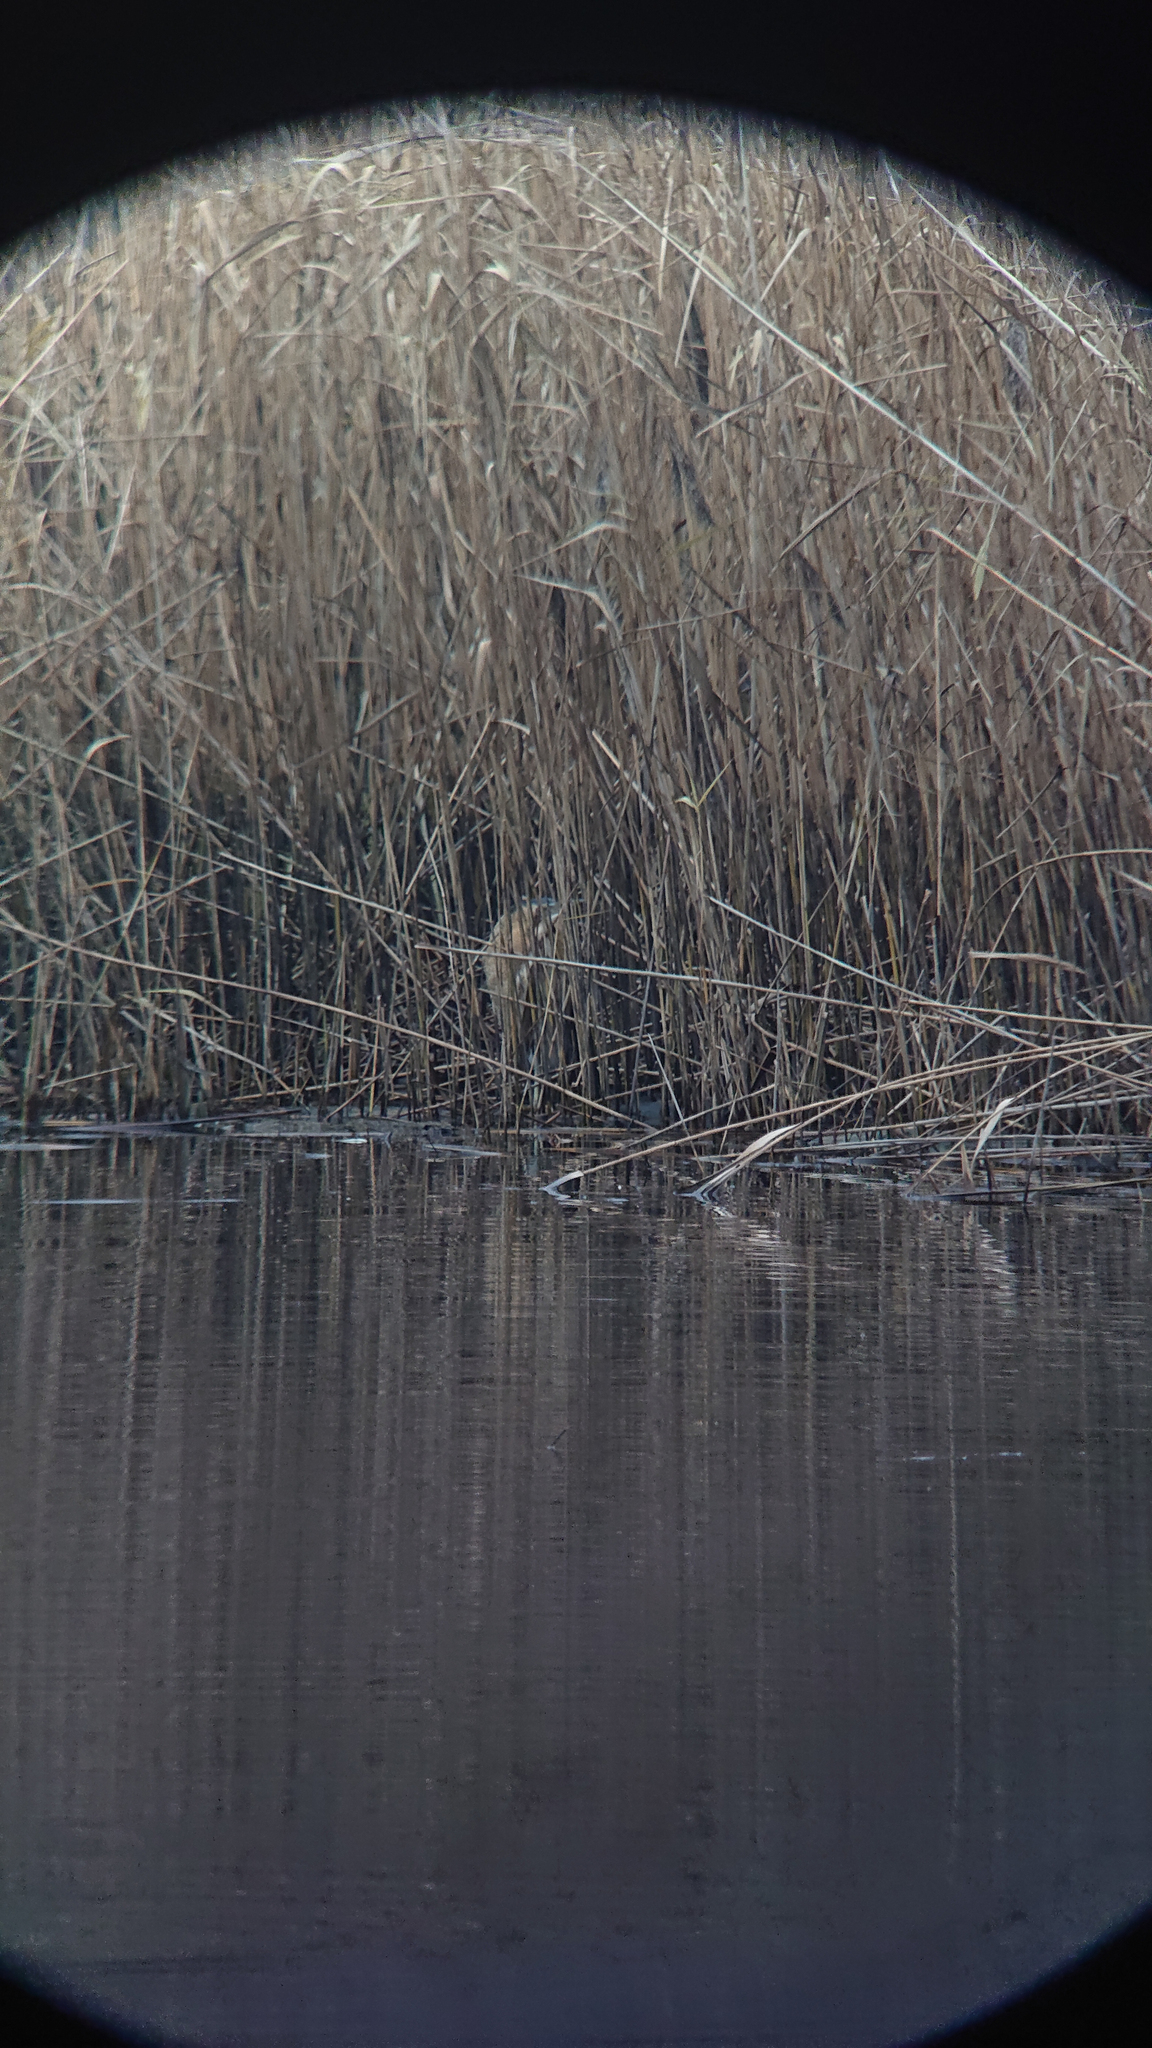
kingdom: Plantae
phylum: Tracheophyta
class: Liliopsida
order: Poales
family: Poaceae
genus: Phragmites
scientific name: Phragmites australis
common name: Common reed
